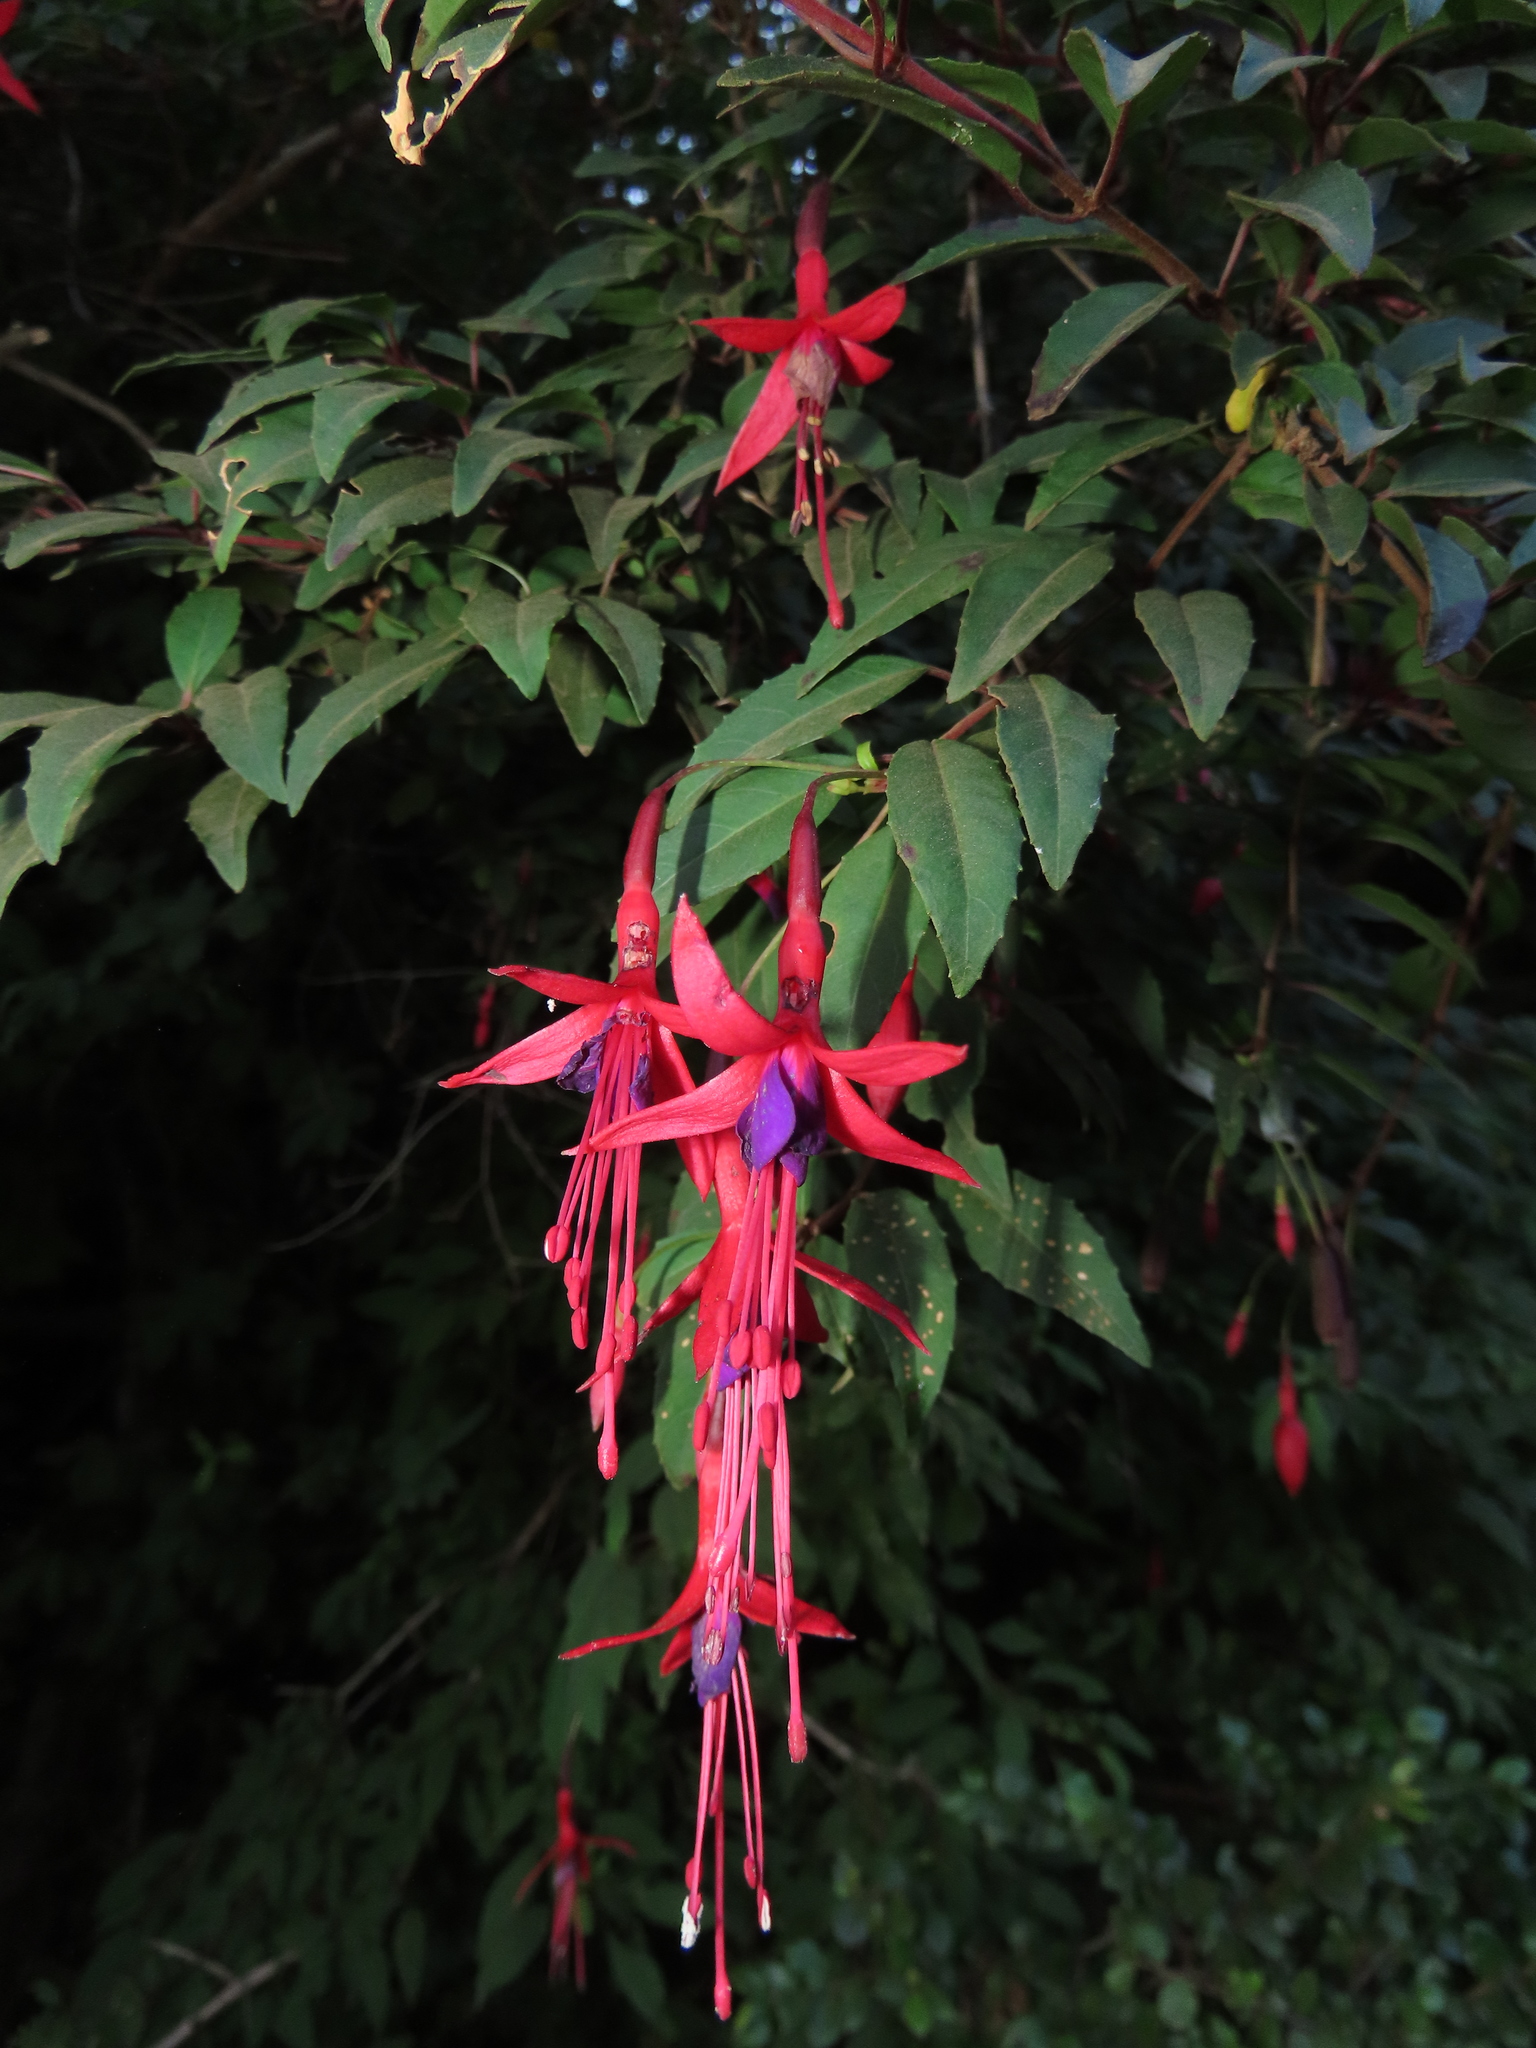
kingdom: Plantae
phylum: Tracheophyta
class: Magnoliopsida
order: Myrtales
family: Onagraceae
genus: Fuchsia
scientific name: Fuchsia magellanica
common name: Hardy fuchsia
